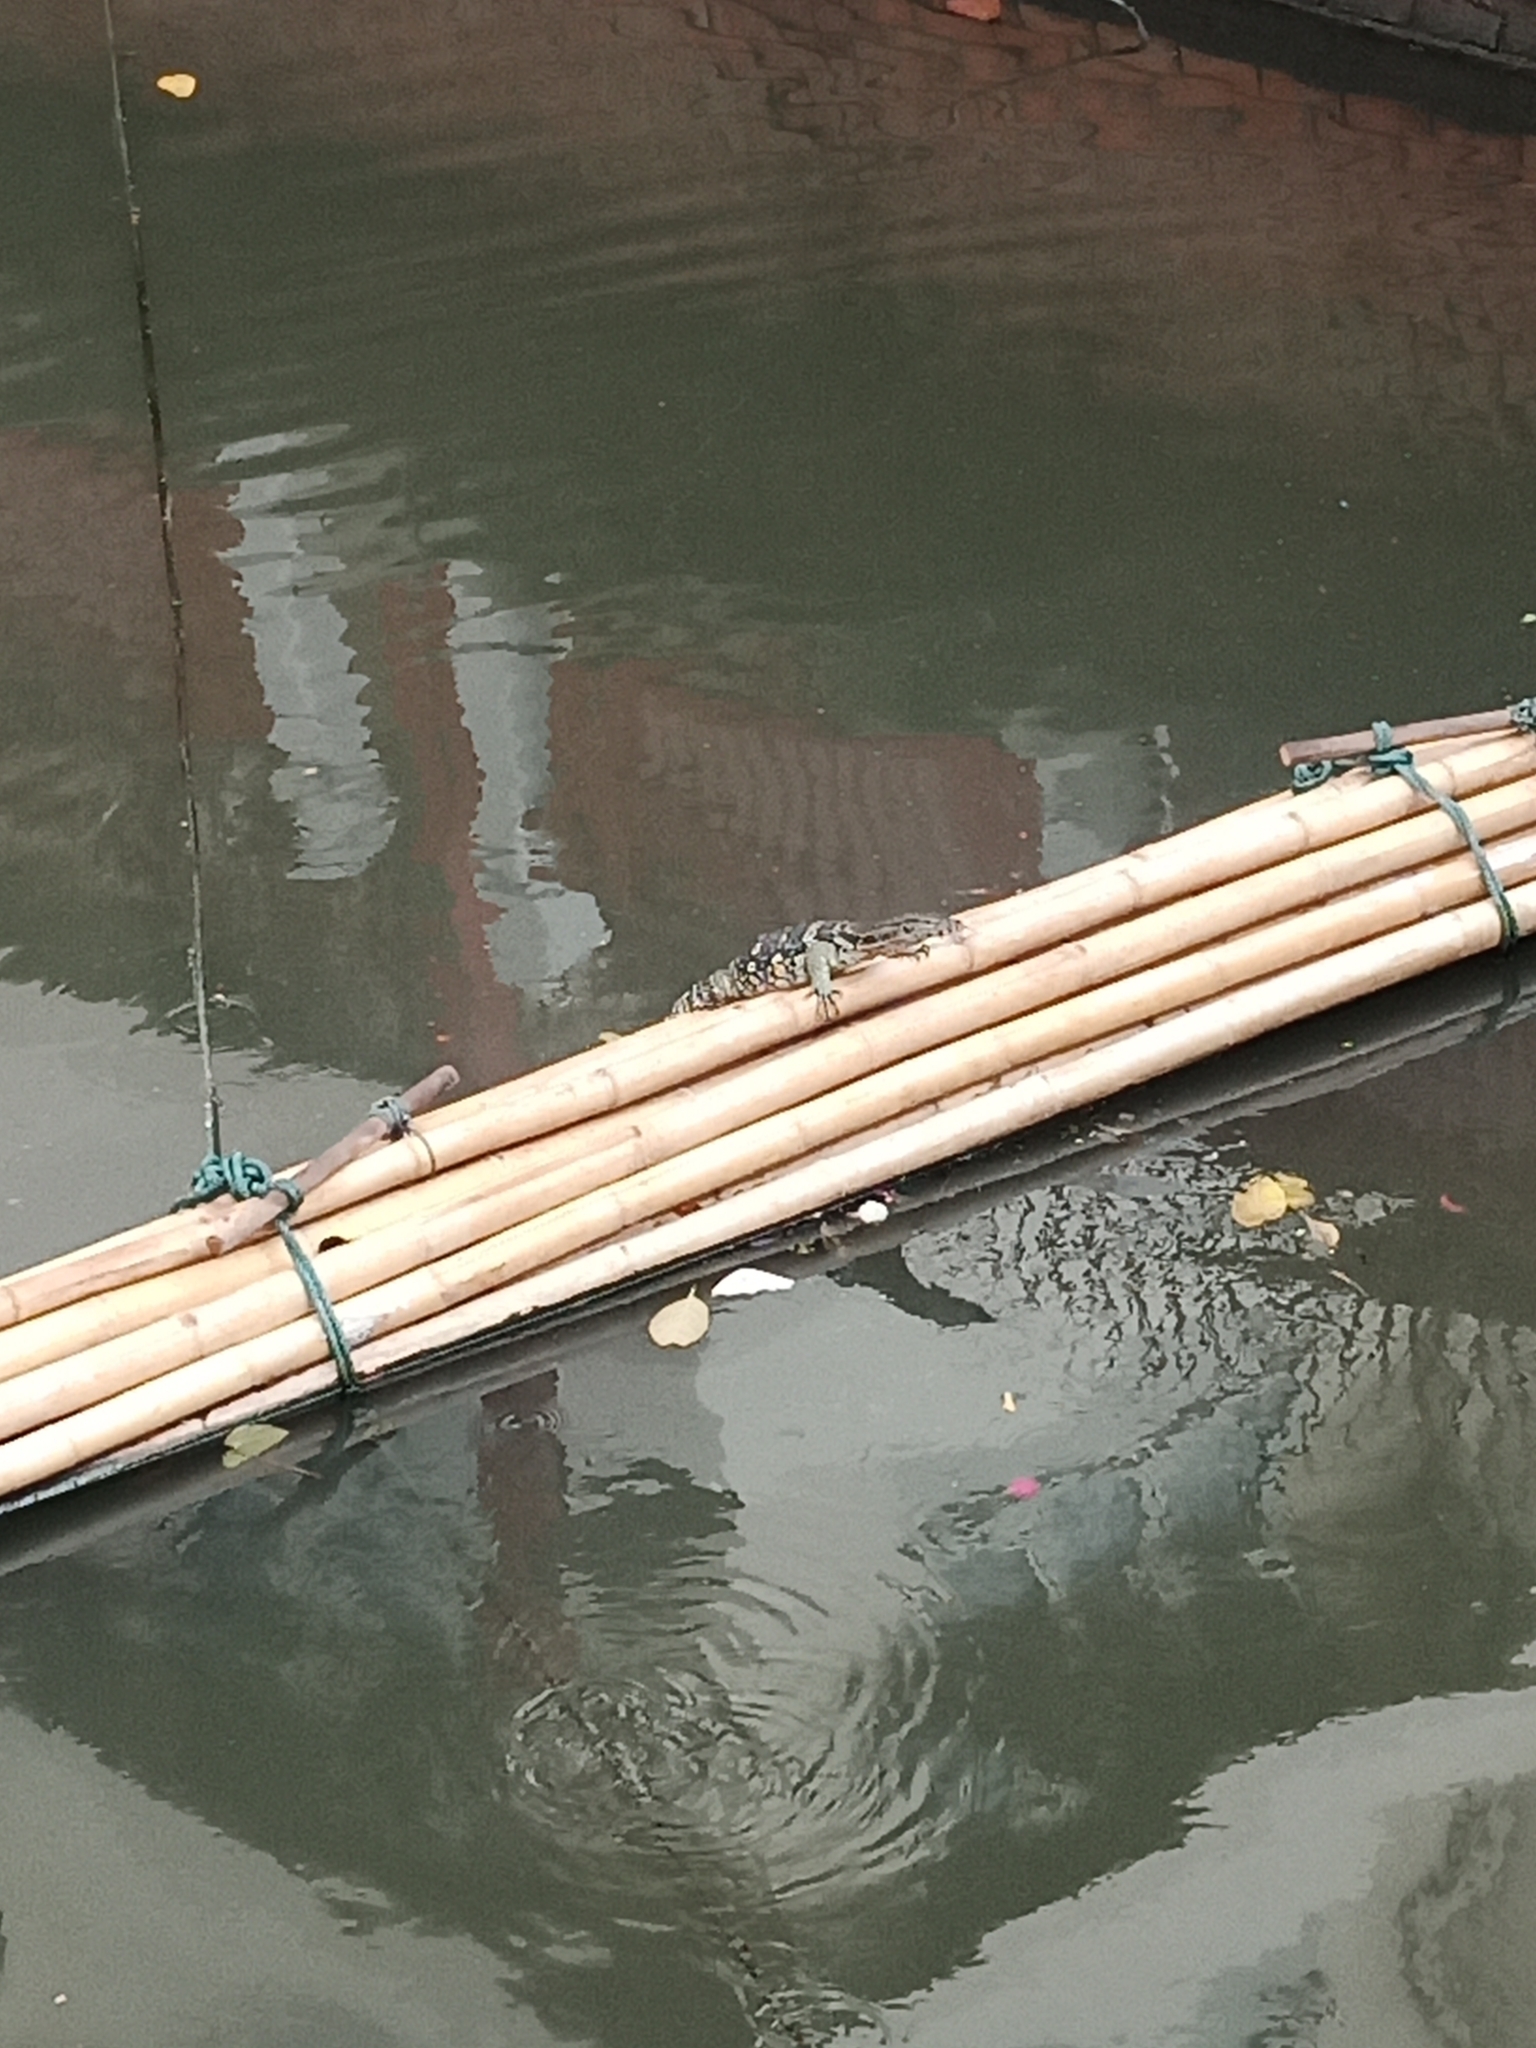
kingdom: Animalia
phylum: Chordata
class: Squamata
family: Varanidae
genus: Varanus
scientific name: Varanus salvator
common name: Common water monitor
